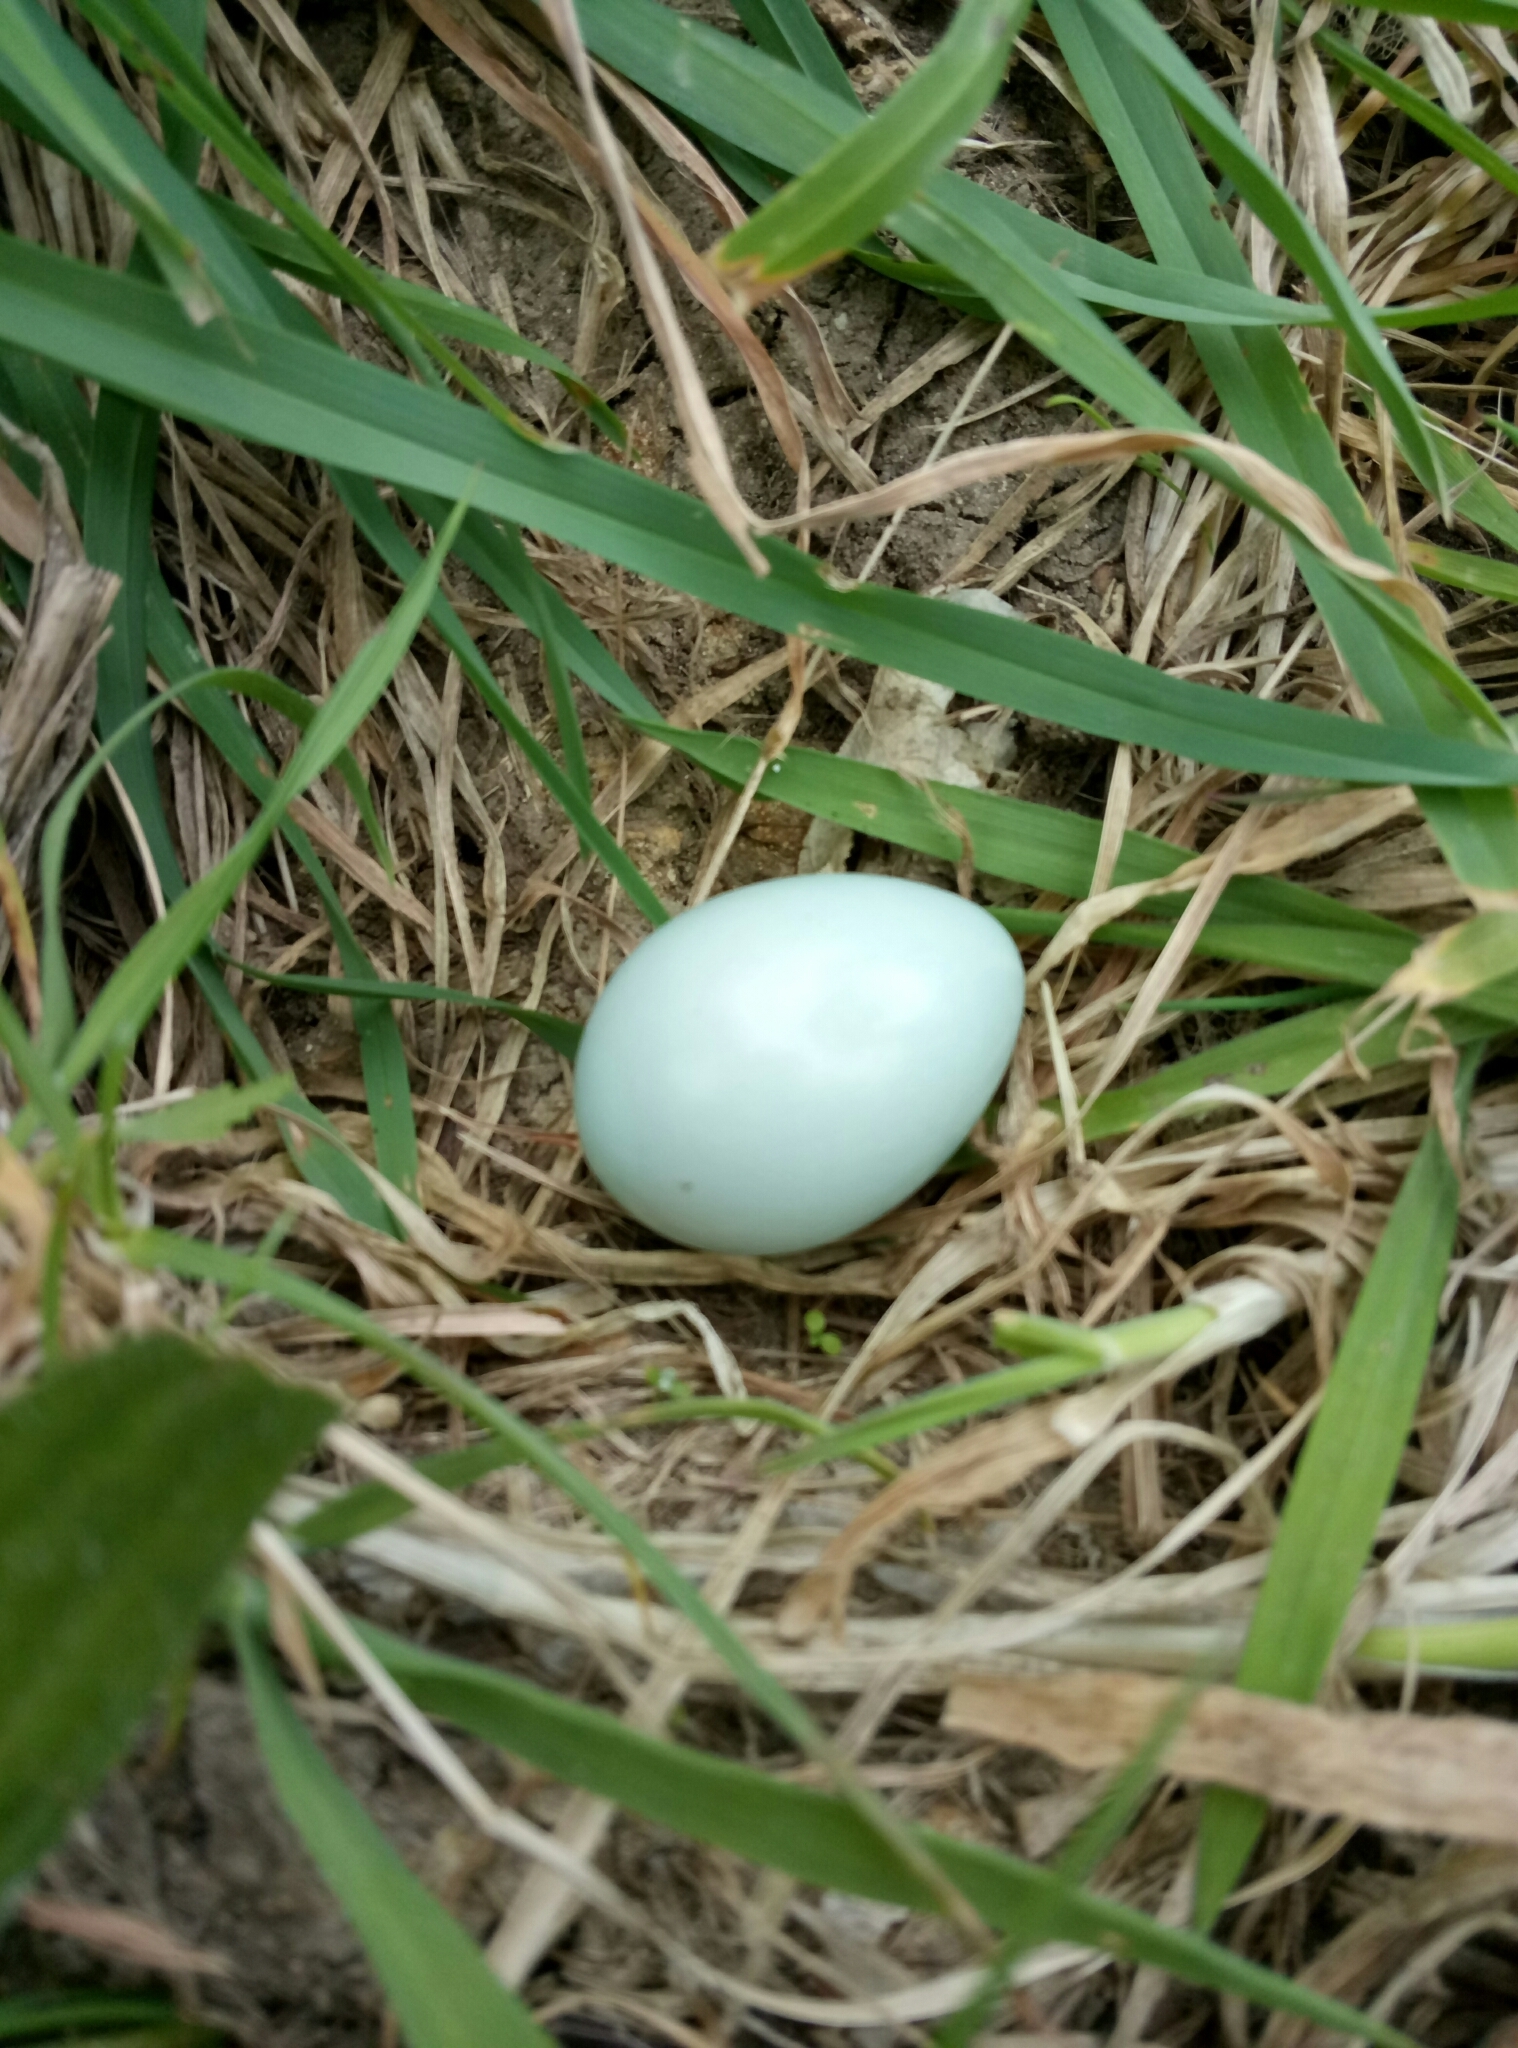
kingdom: Animalia
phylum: Chordata
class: Aves
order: Passeriformes
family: Sturnidae
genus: Sturnus
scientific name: Sturnus vulgaris
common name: Common starling
